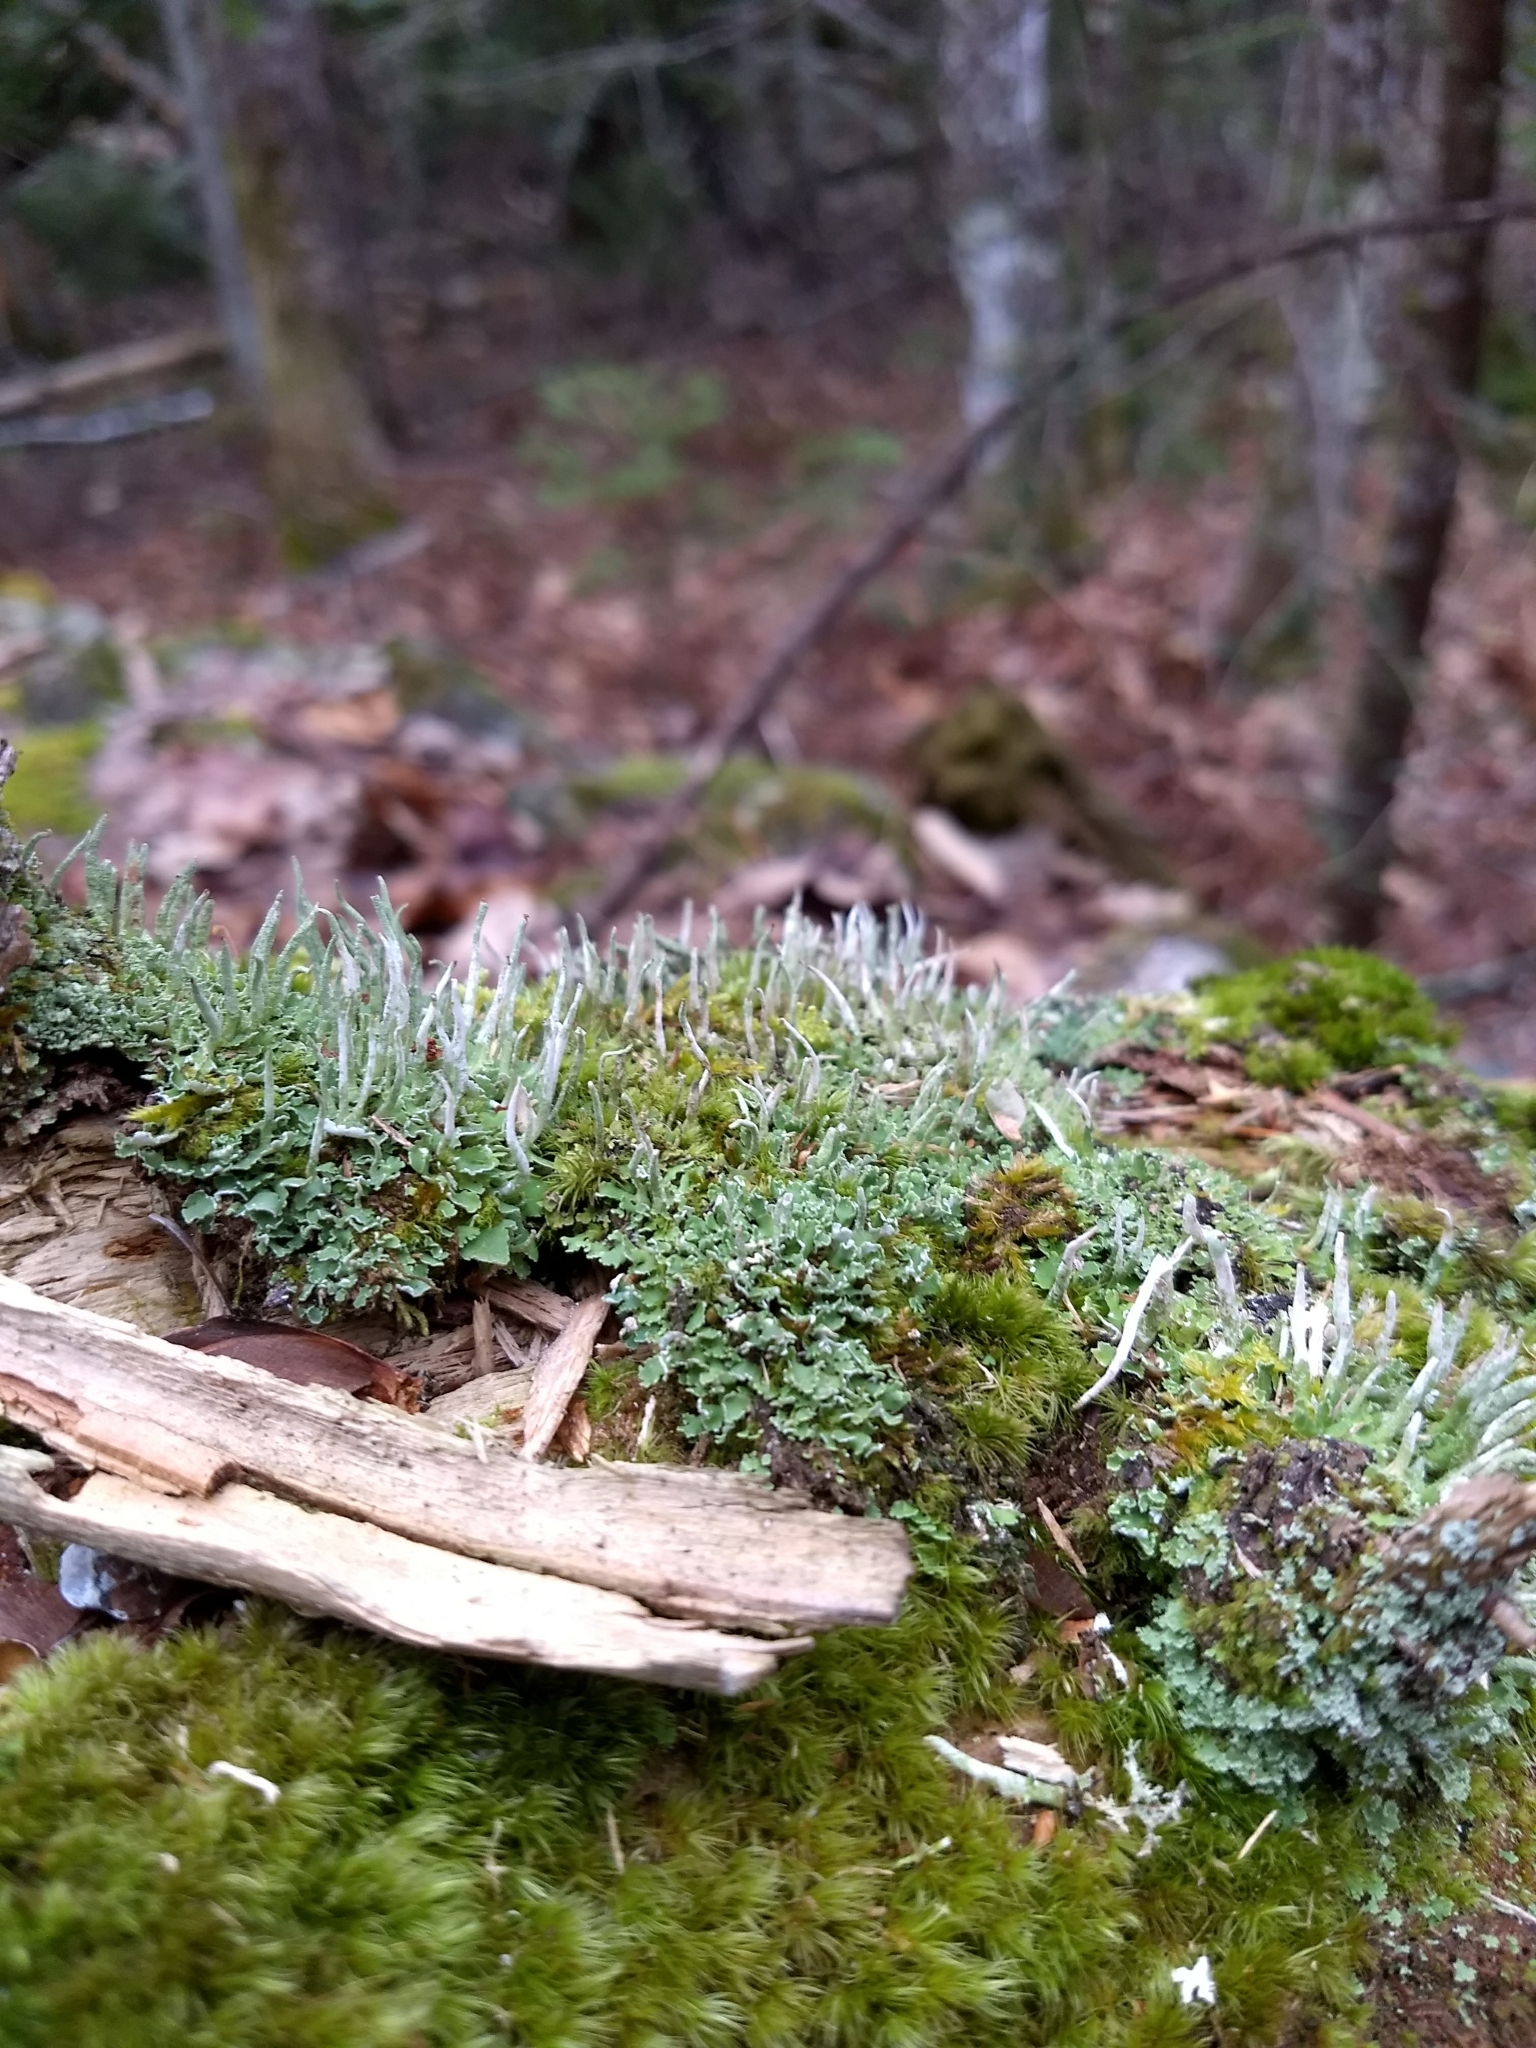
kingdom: Fungi
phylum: Ascomycota
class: Lecanoromycetes
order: Lecanorales
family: Cladoniaceae
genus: Cladonia
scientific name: Cladonia coniocraea
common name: Common powderhorn
